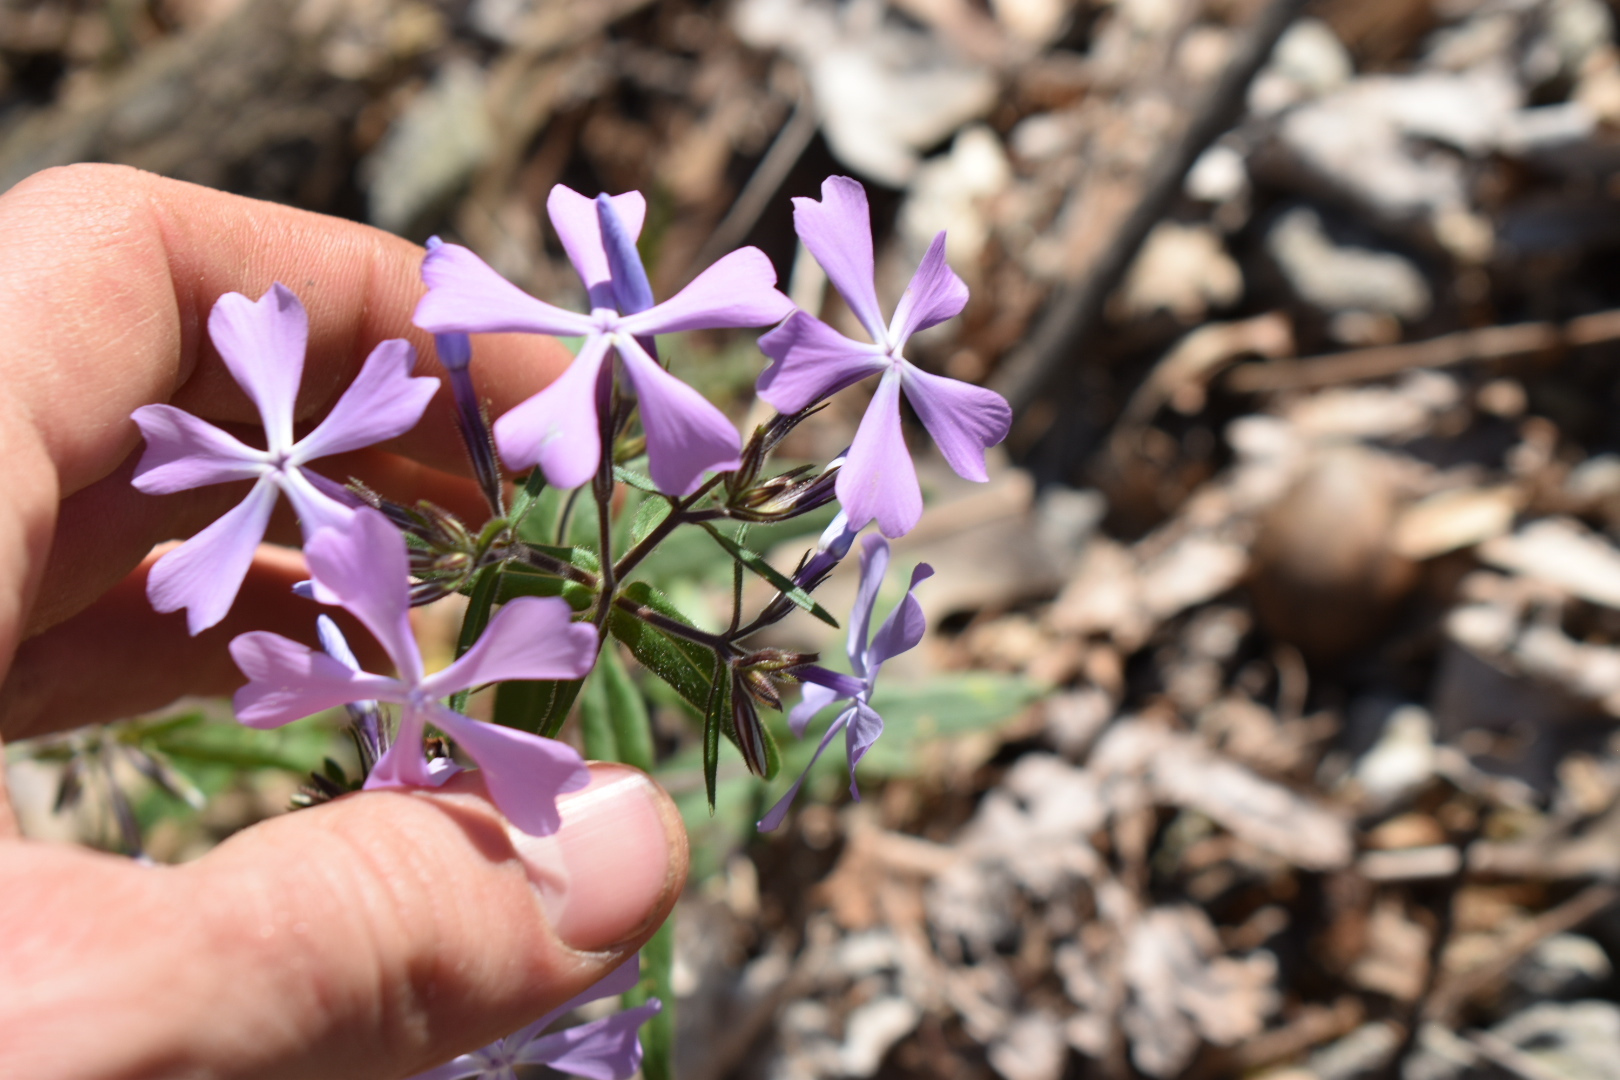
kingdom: Plantae
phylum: Tracheophyta
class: Magnoliopsida
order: Ericales
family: Polemoniaceae
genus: Phlox
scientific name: Phlox divaricata
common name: Blue phlox
